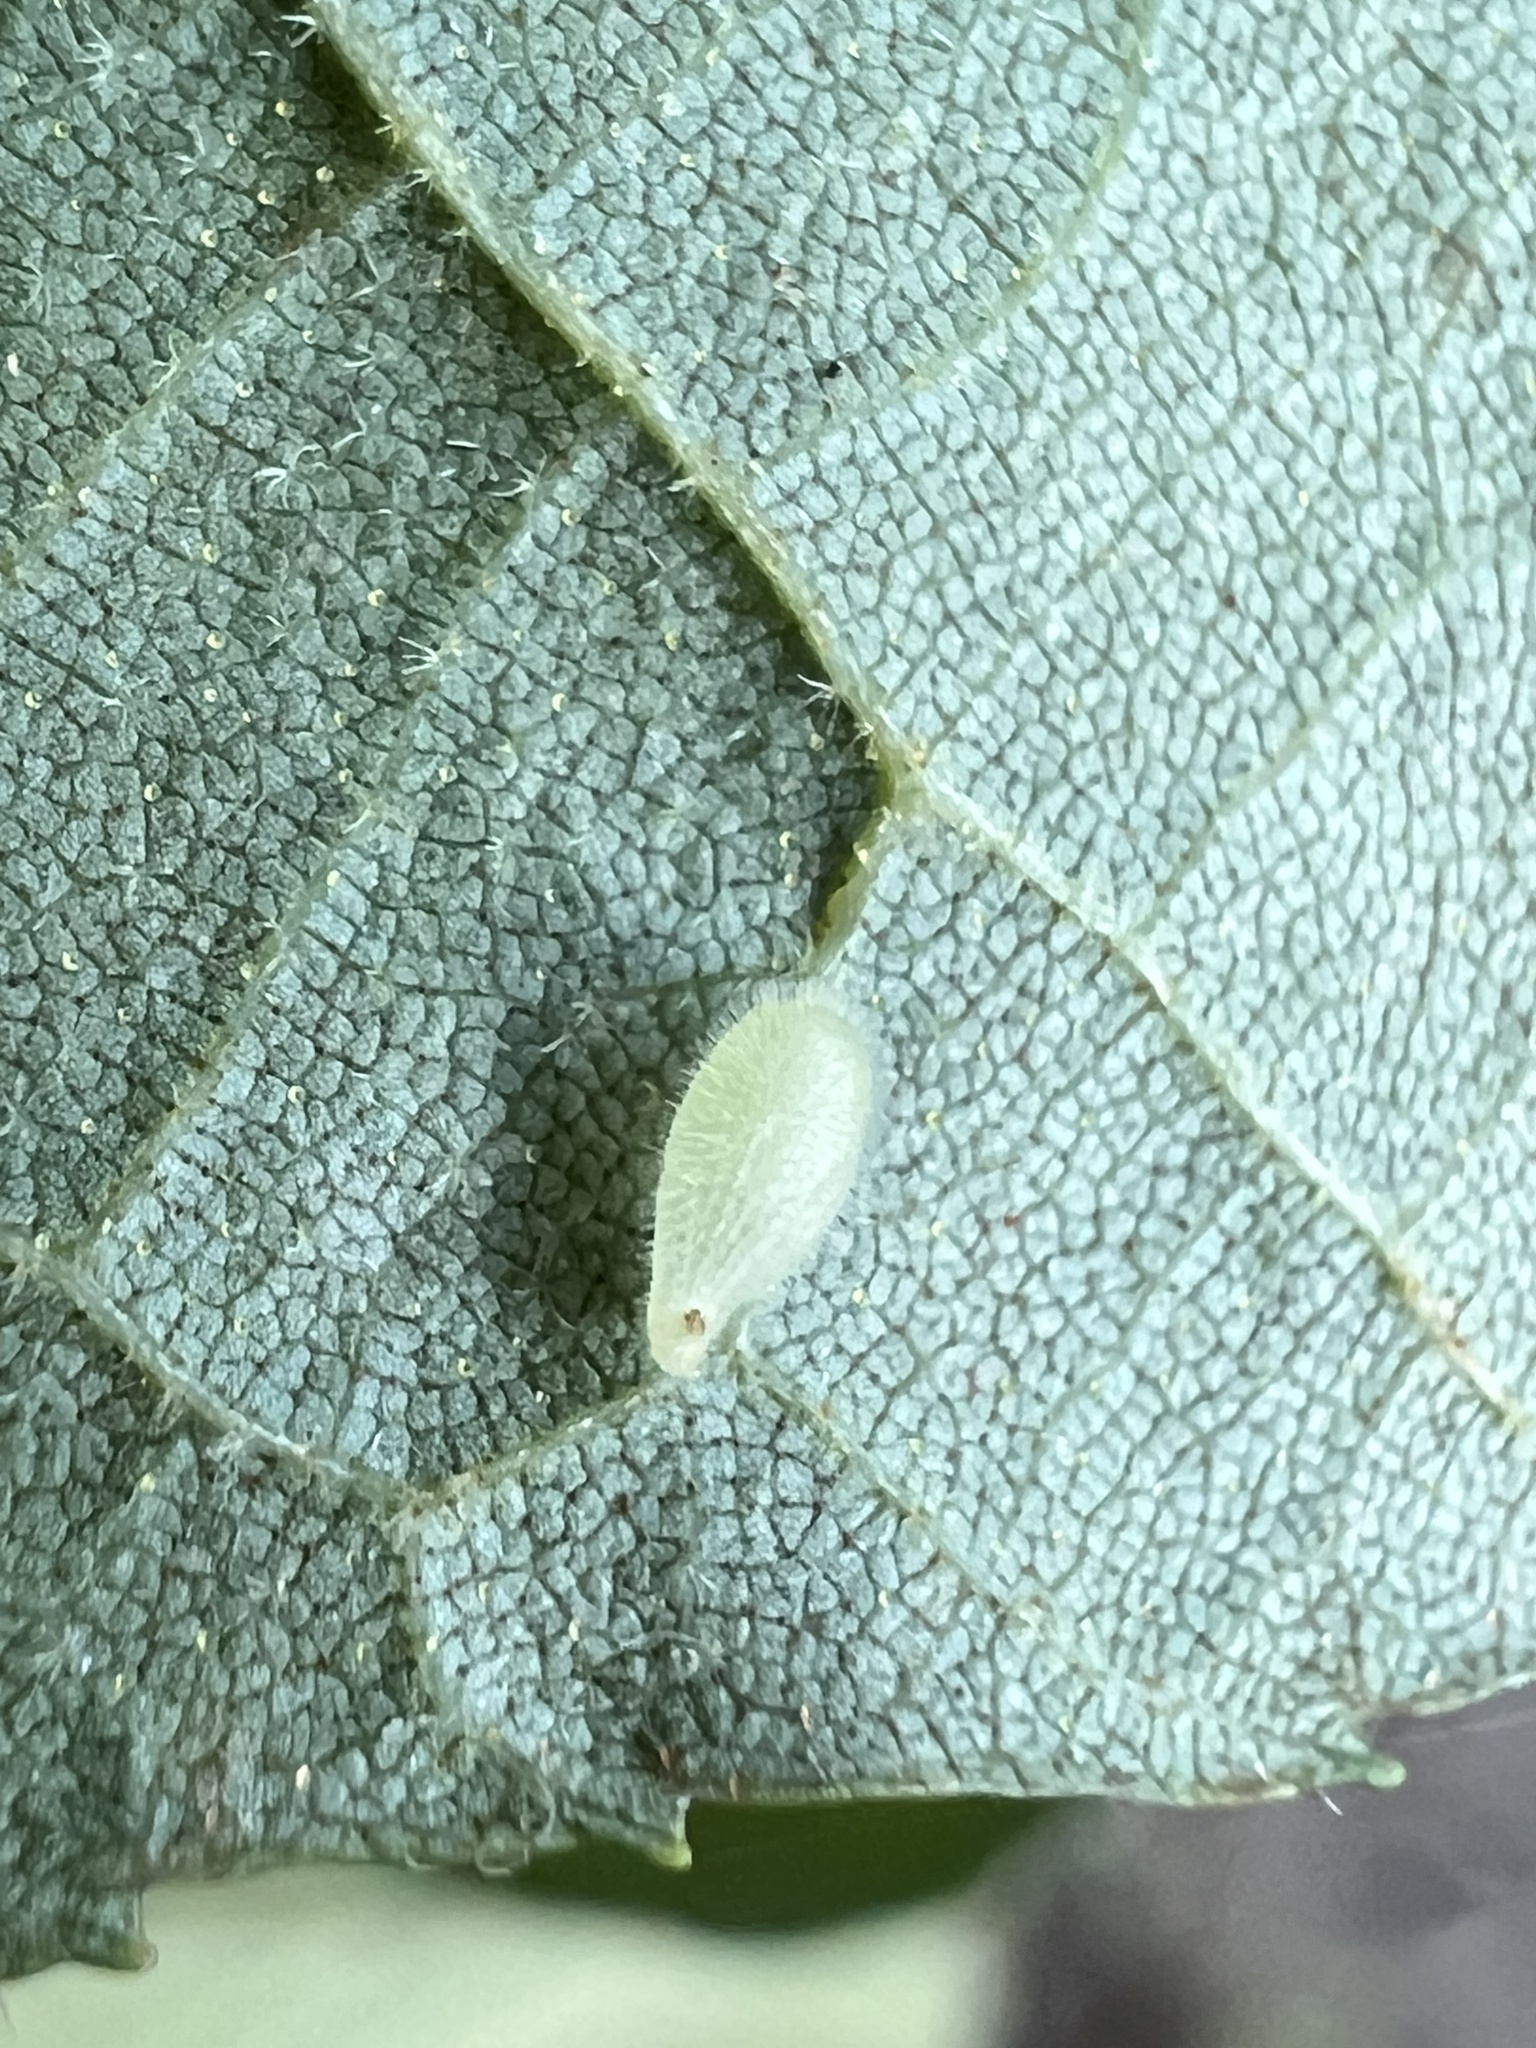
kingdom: Animalia
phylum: Arthropoda
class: Insecta
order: Diptera
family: Cecidomyiidae
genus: Caryomyia
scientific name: Caryomyia eumaris
